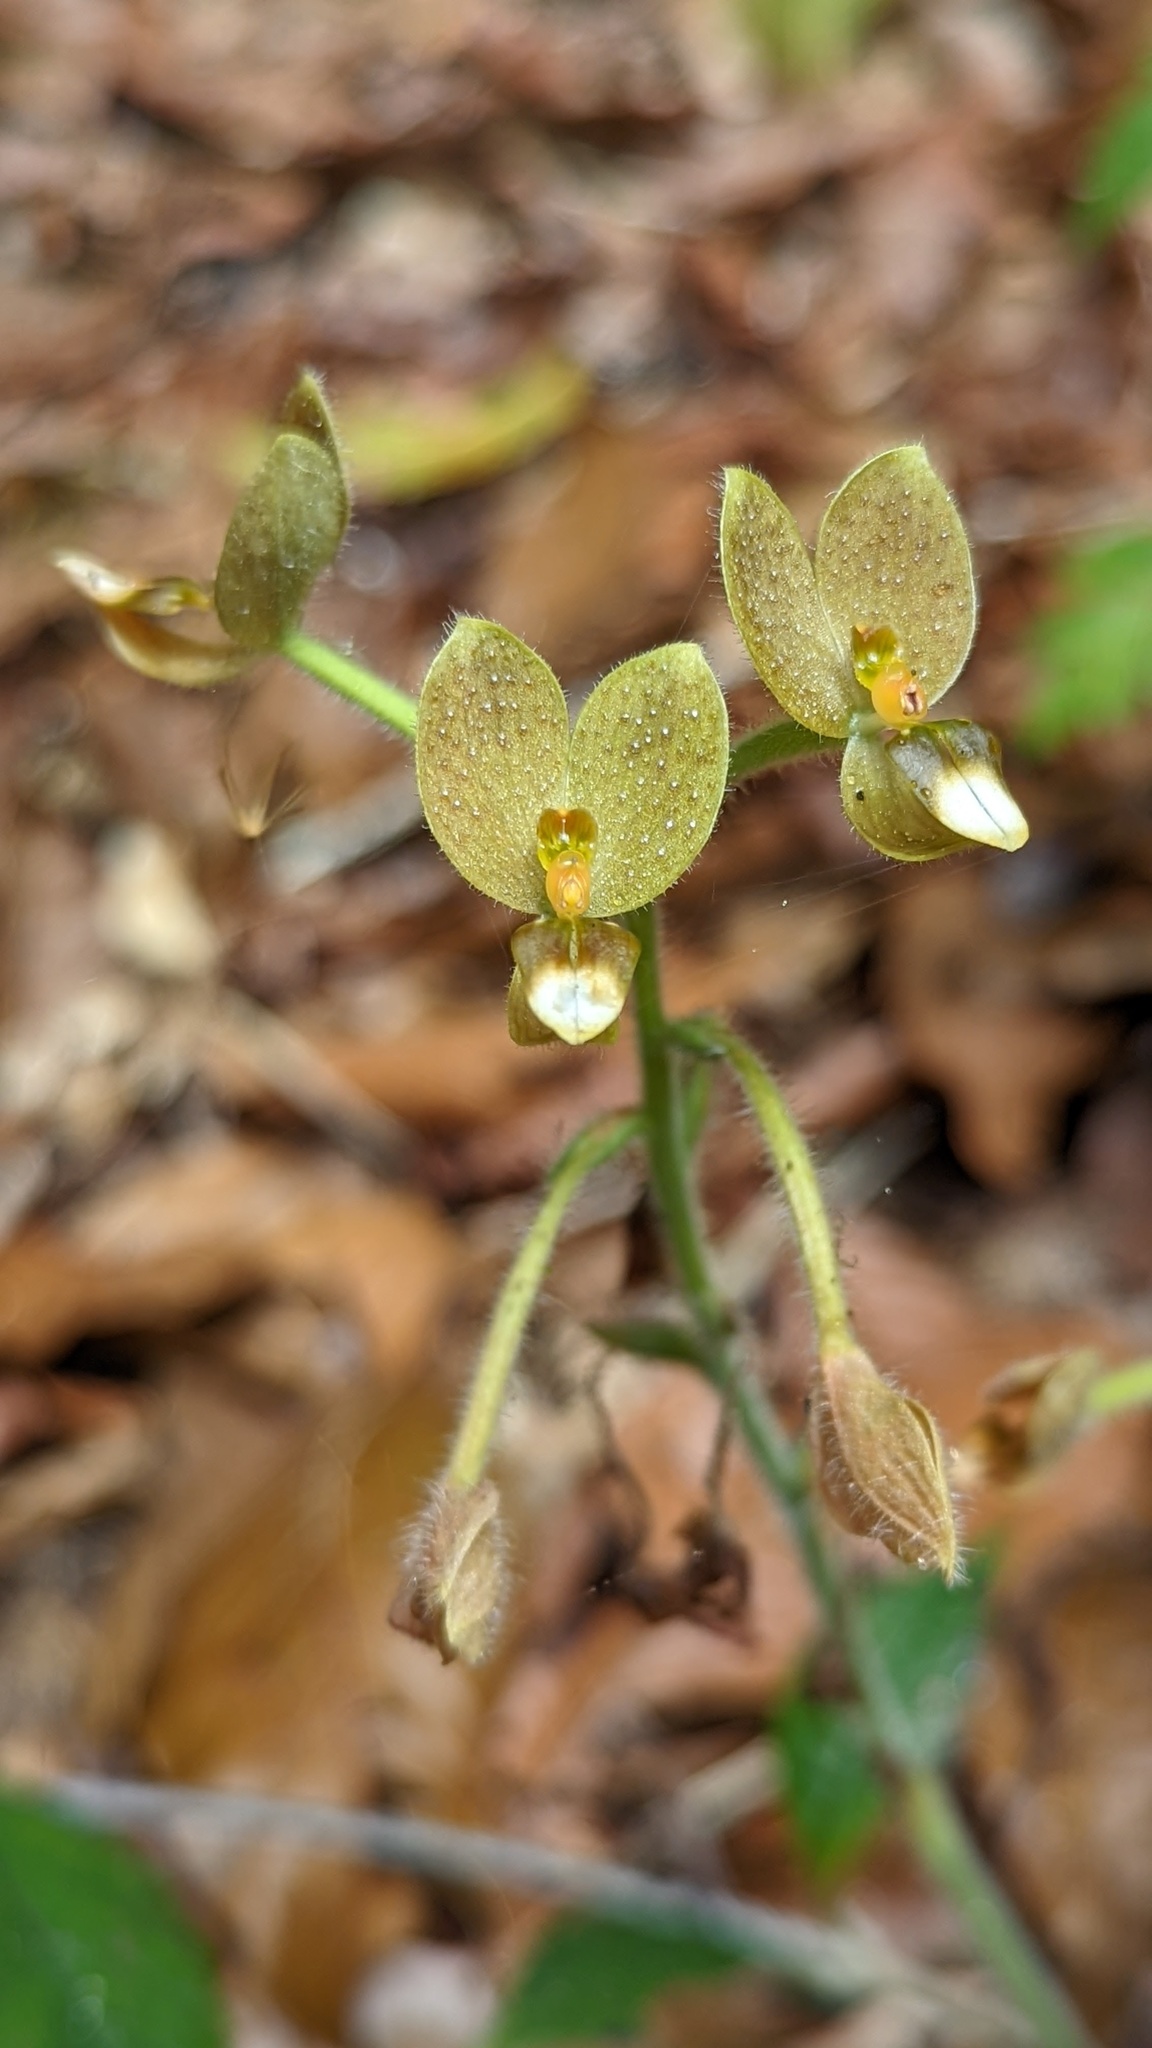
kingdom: Plantae
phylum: Tracheophyta
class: Liliopsida
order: Asparagales
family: Orchidaceae
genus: Ponthieva
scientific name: Ponthieva formosa
